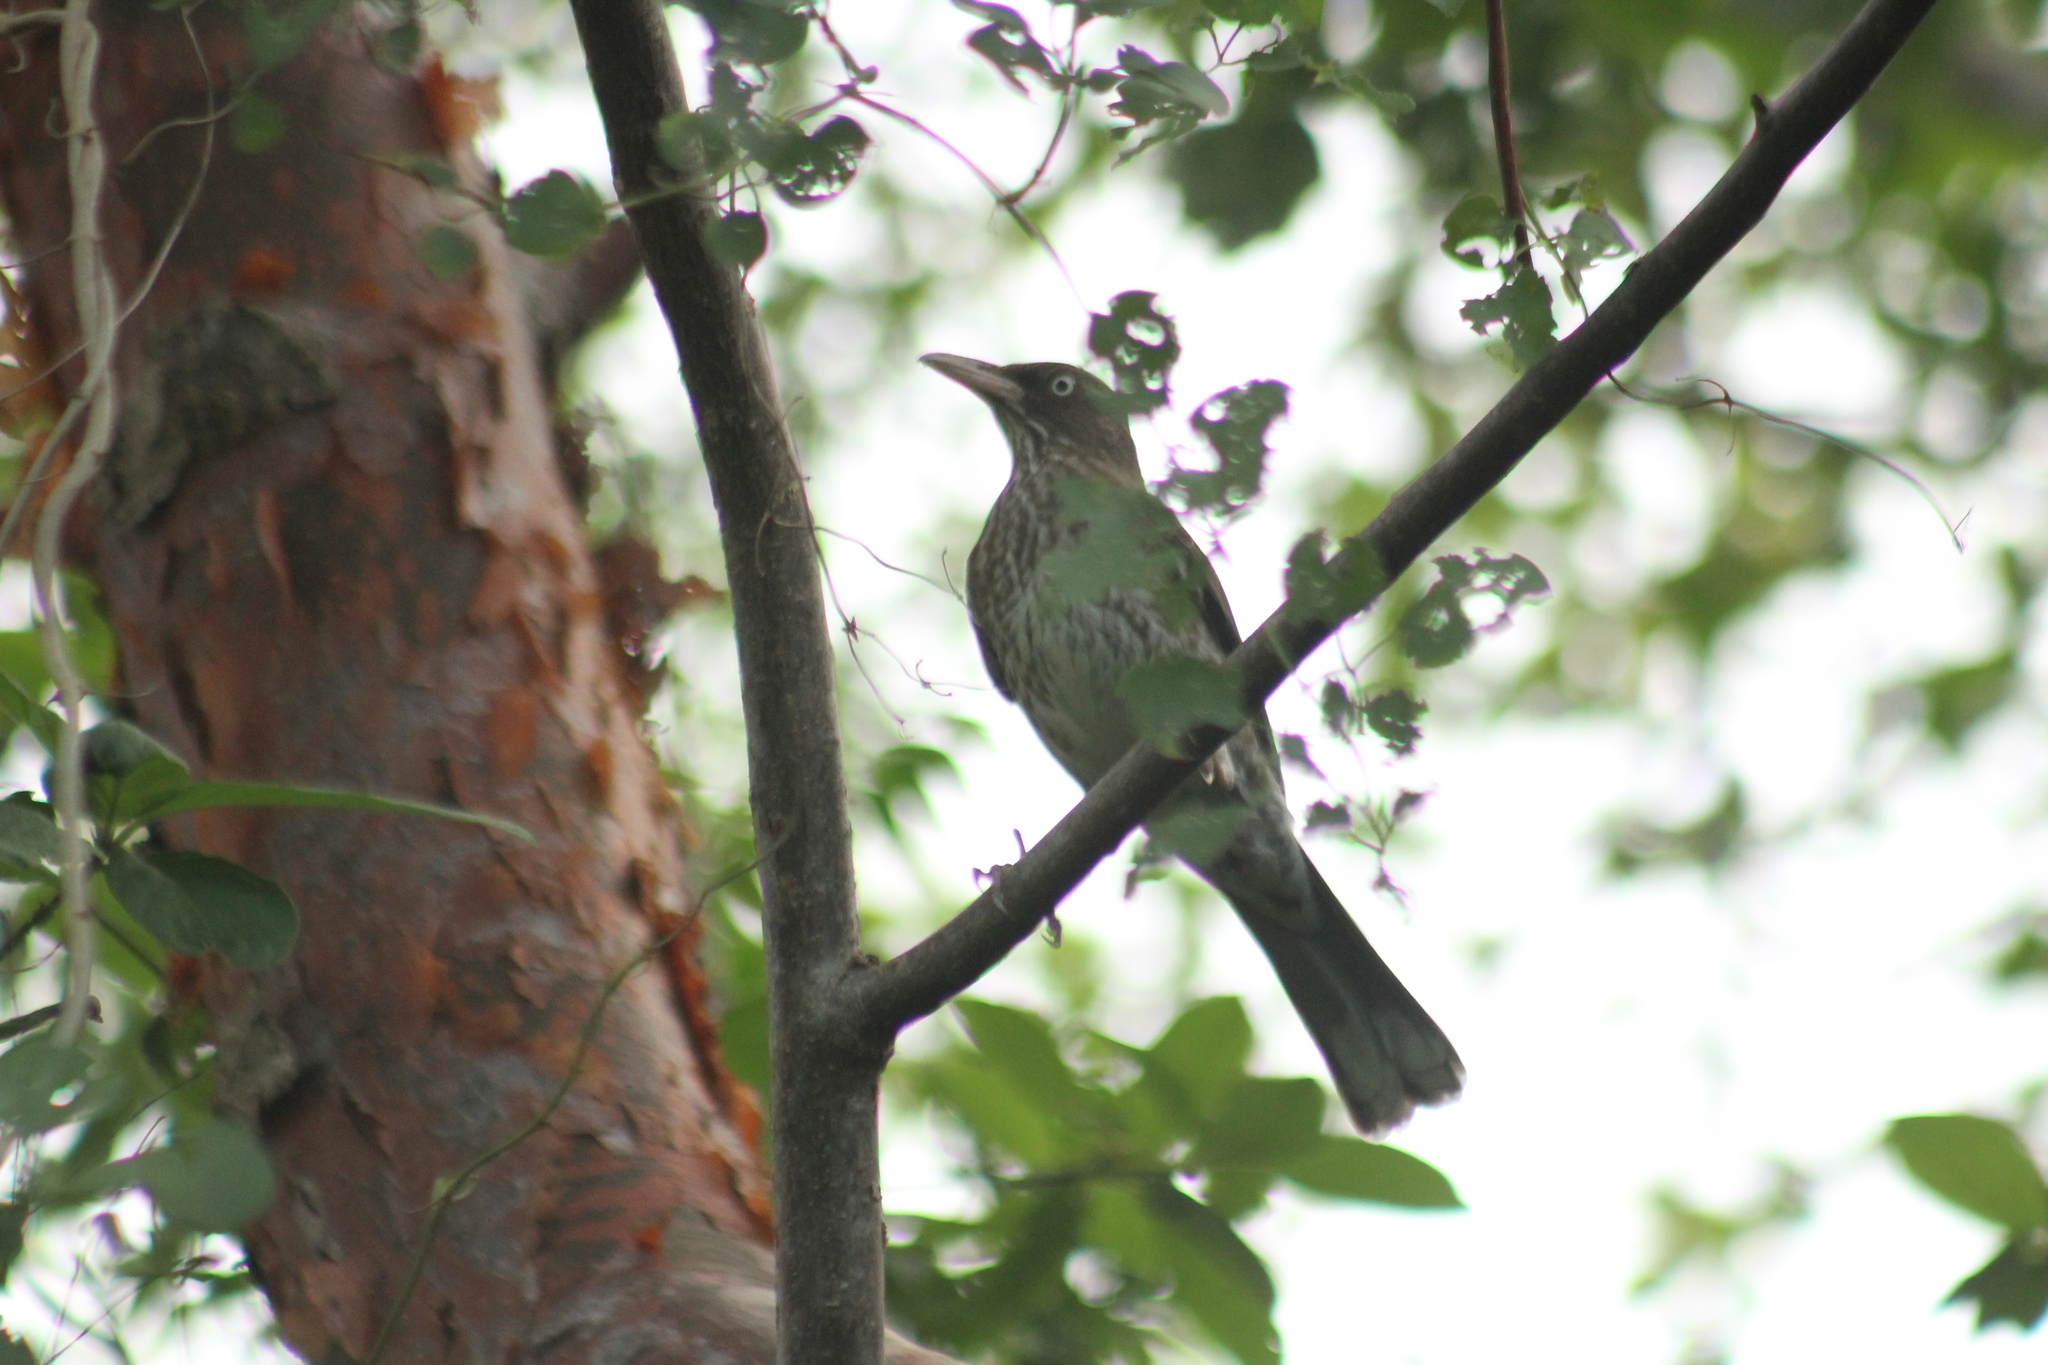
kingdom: Animalia
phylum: Chordata
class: Aves
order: Passeriformes
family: Mimidae
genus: Margarops
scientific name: Margarops fuscatus
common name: Pearly-eyed thrasher
